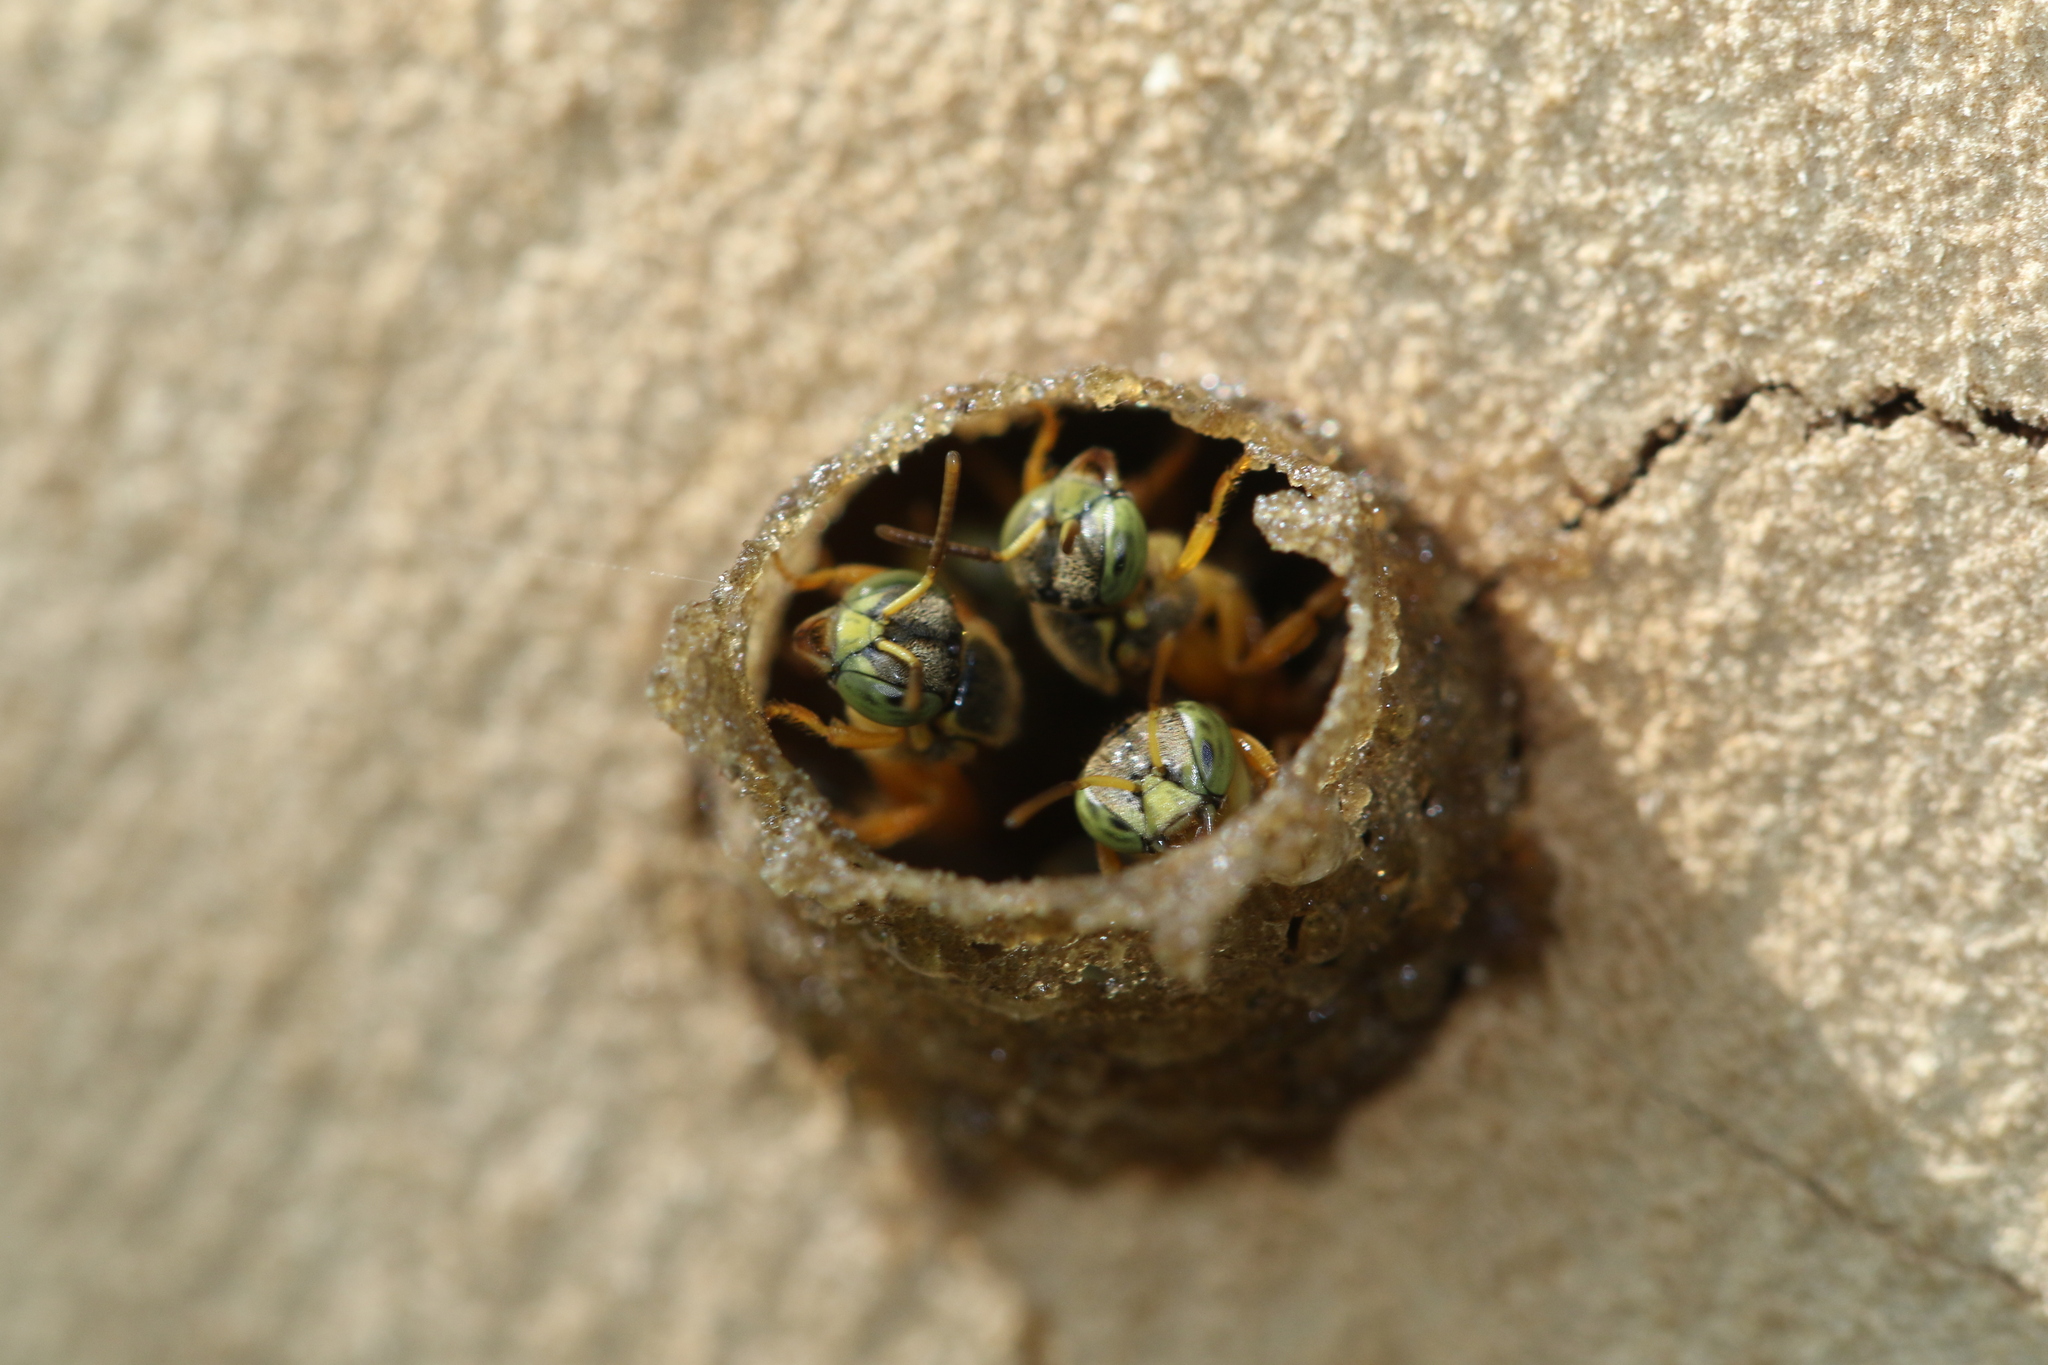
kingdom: Animalia
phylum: Arthropoda
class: Insecta
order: Hymenoptera
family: Apidae
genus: Tetragonisca
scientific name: Tetragonisca angustula
